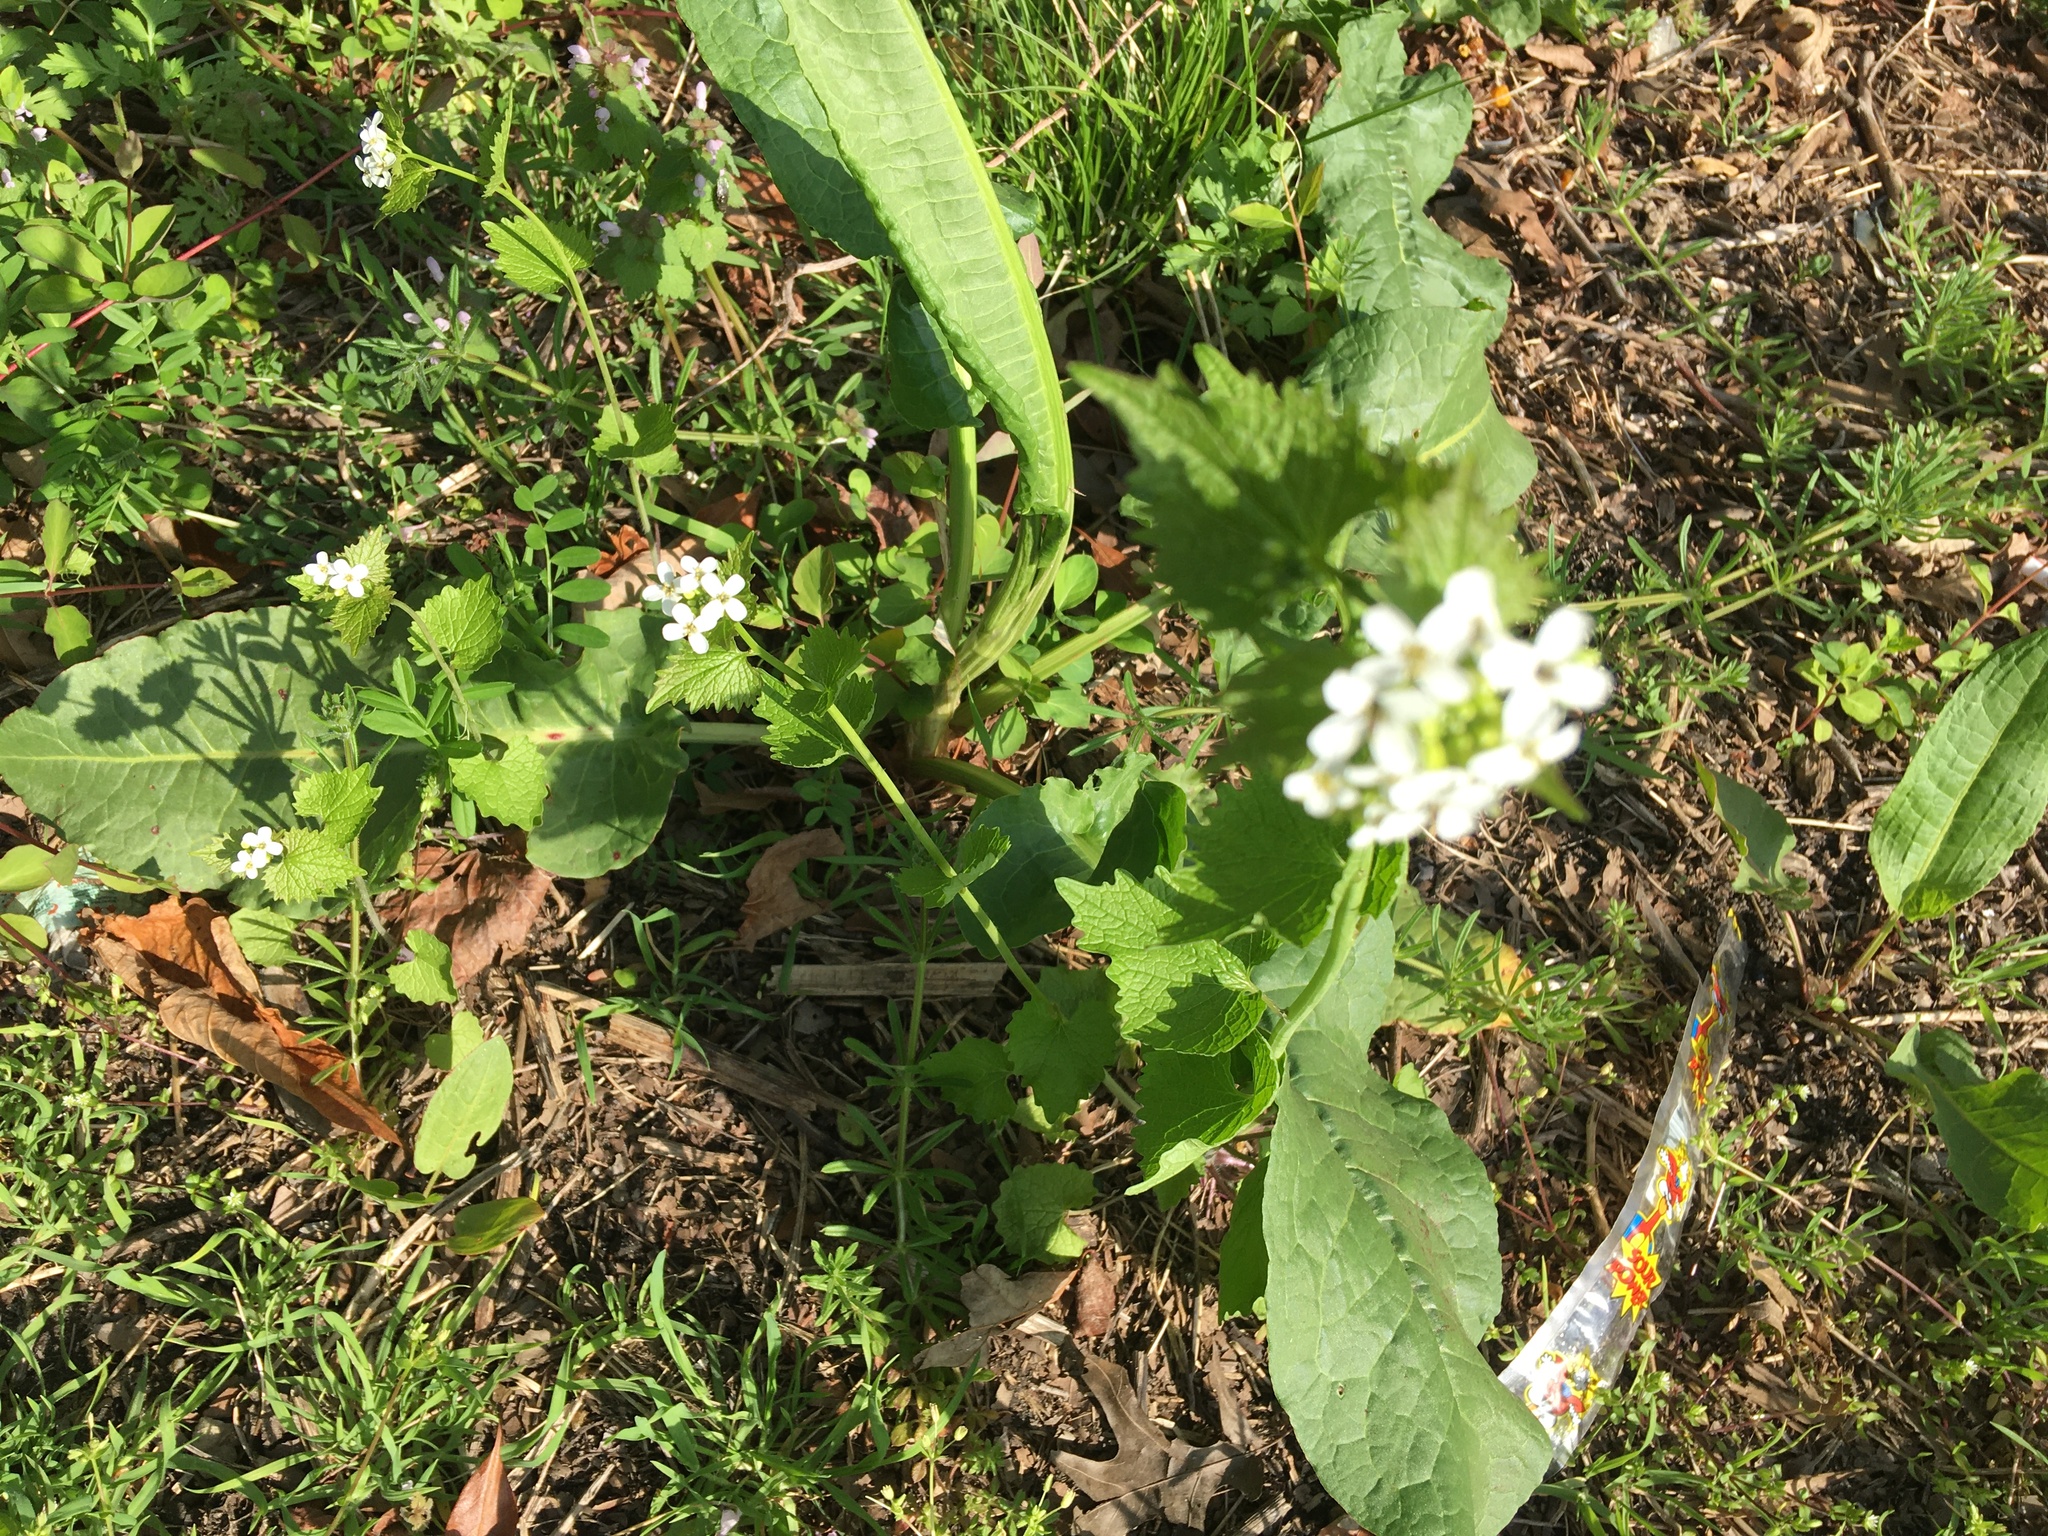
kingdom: Plantae
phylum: Tracheophyta
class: Magnoliopsida
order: Brassicales
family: Brassicaceae
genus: Alliaria
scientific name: Alliaria petiolata
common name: Garlic mustard
